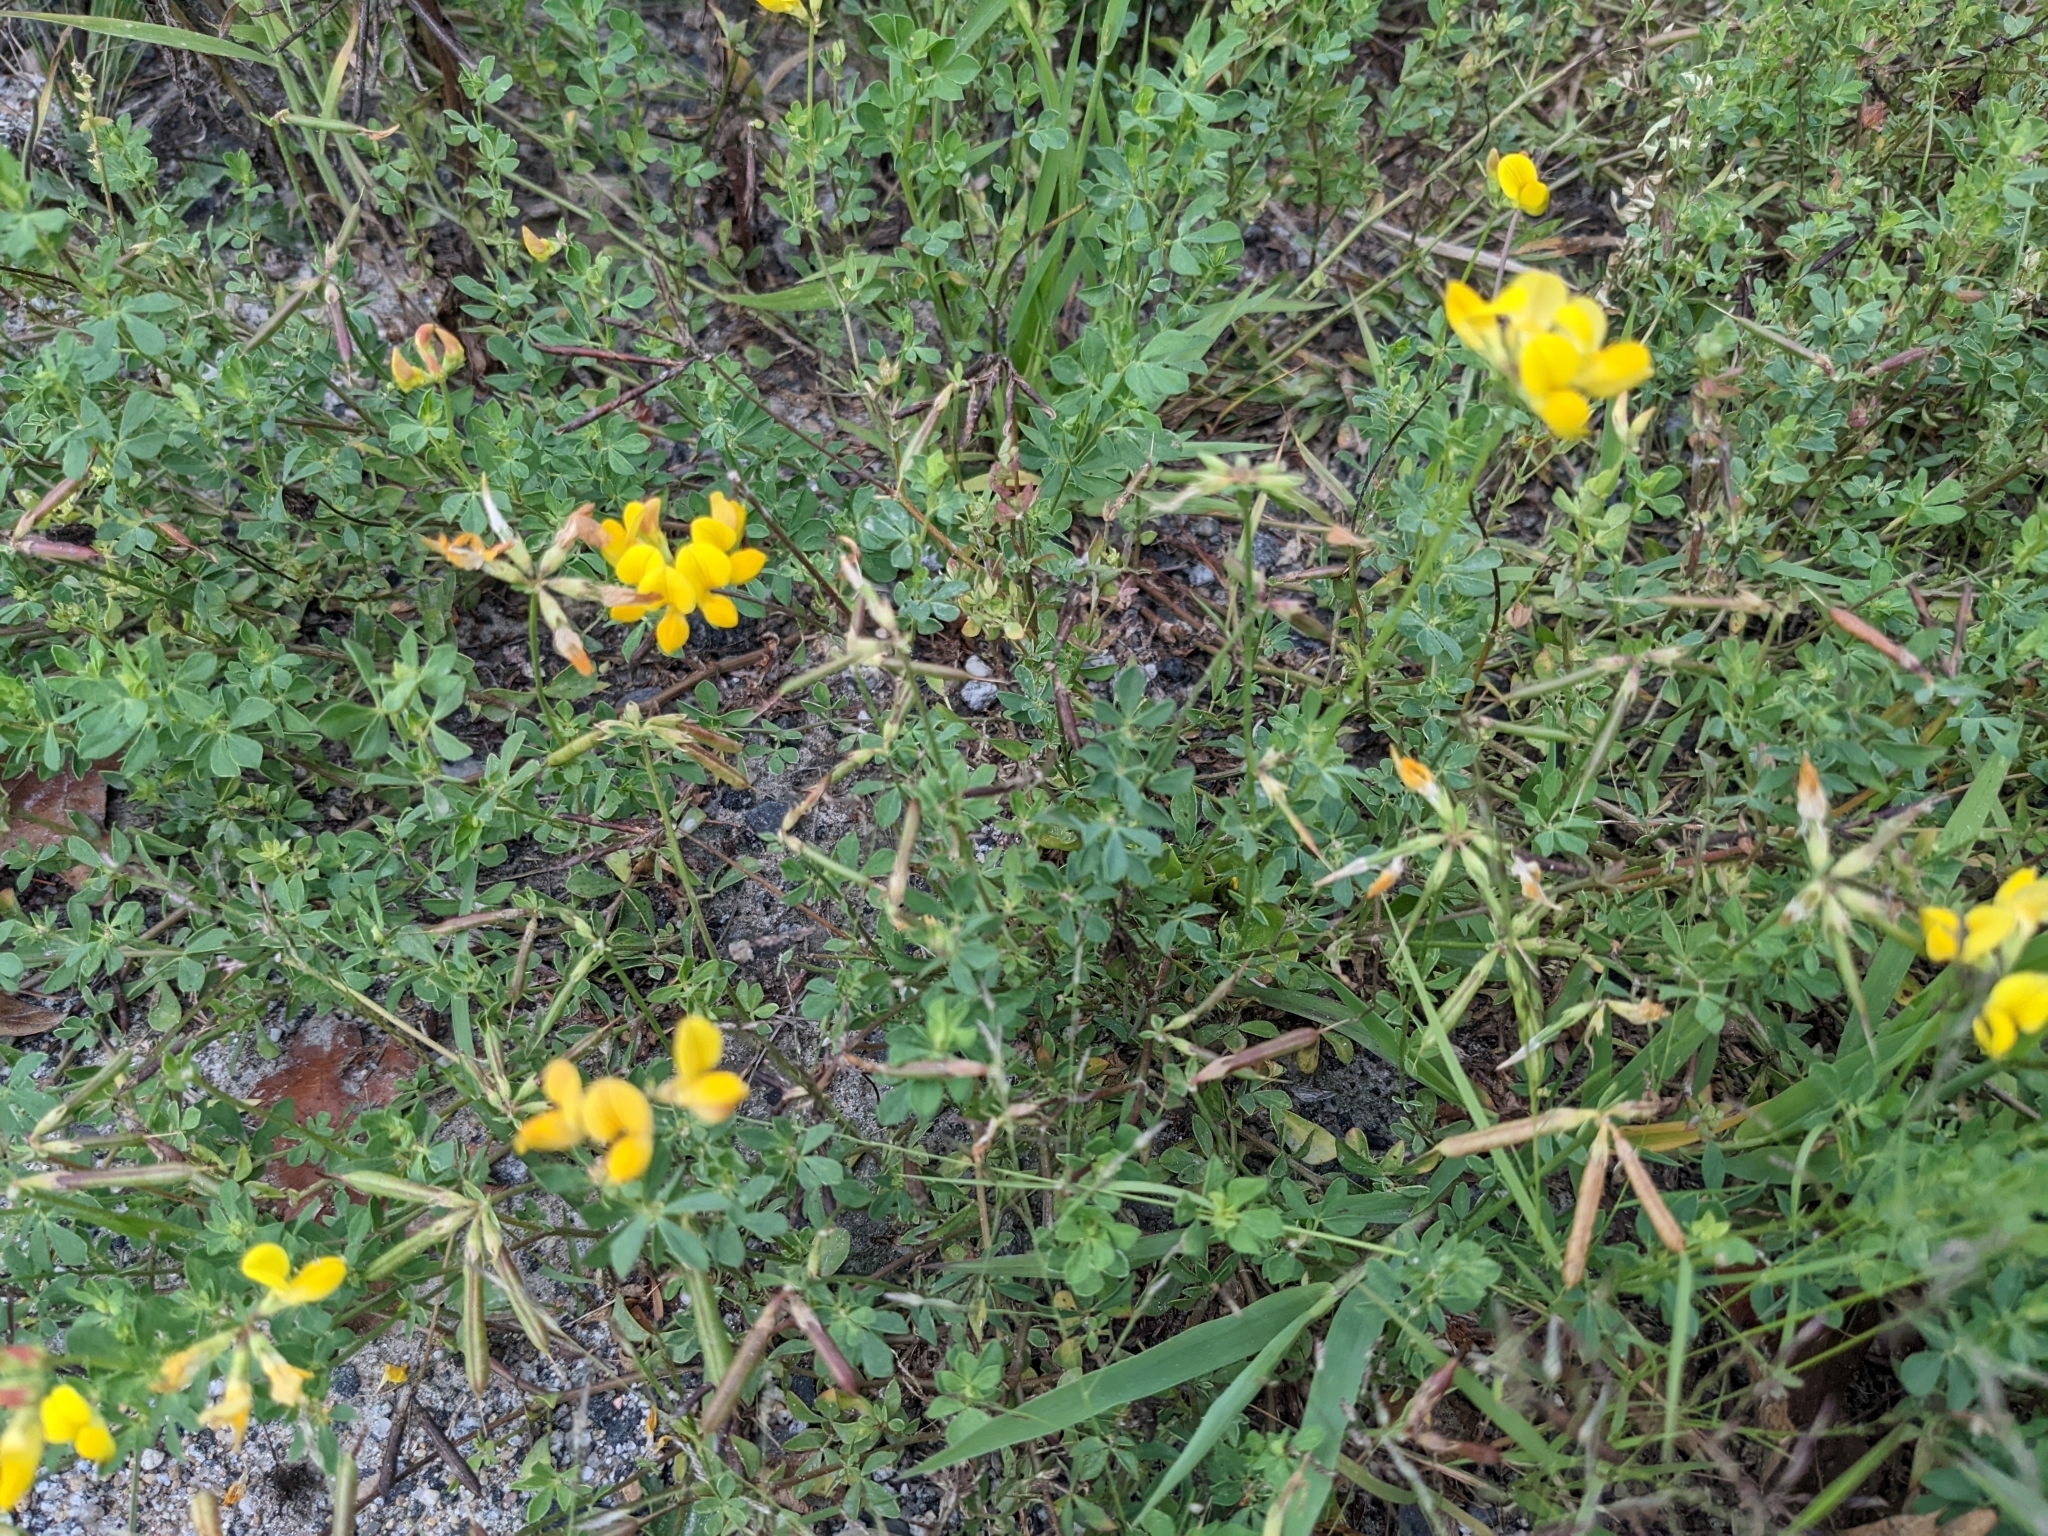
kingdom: Plantae
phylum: Tracheophyta
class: Magnoliopsida
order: Fabales
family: Fabaceae
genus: Lotus
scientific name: Lotus corniculatus
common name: Common bird's-foot-trefoil
